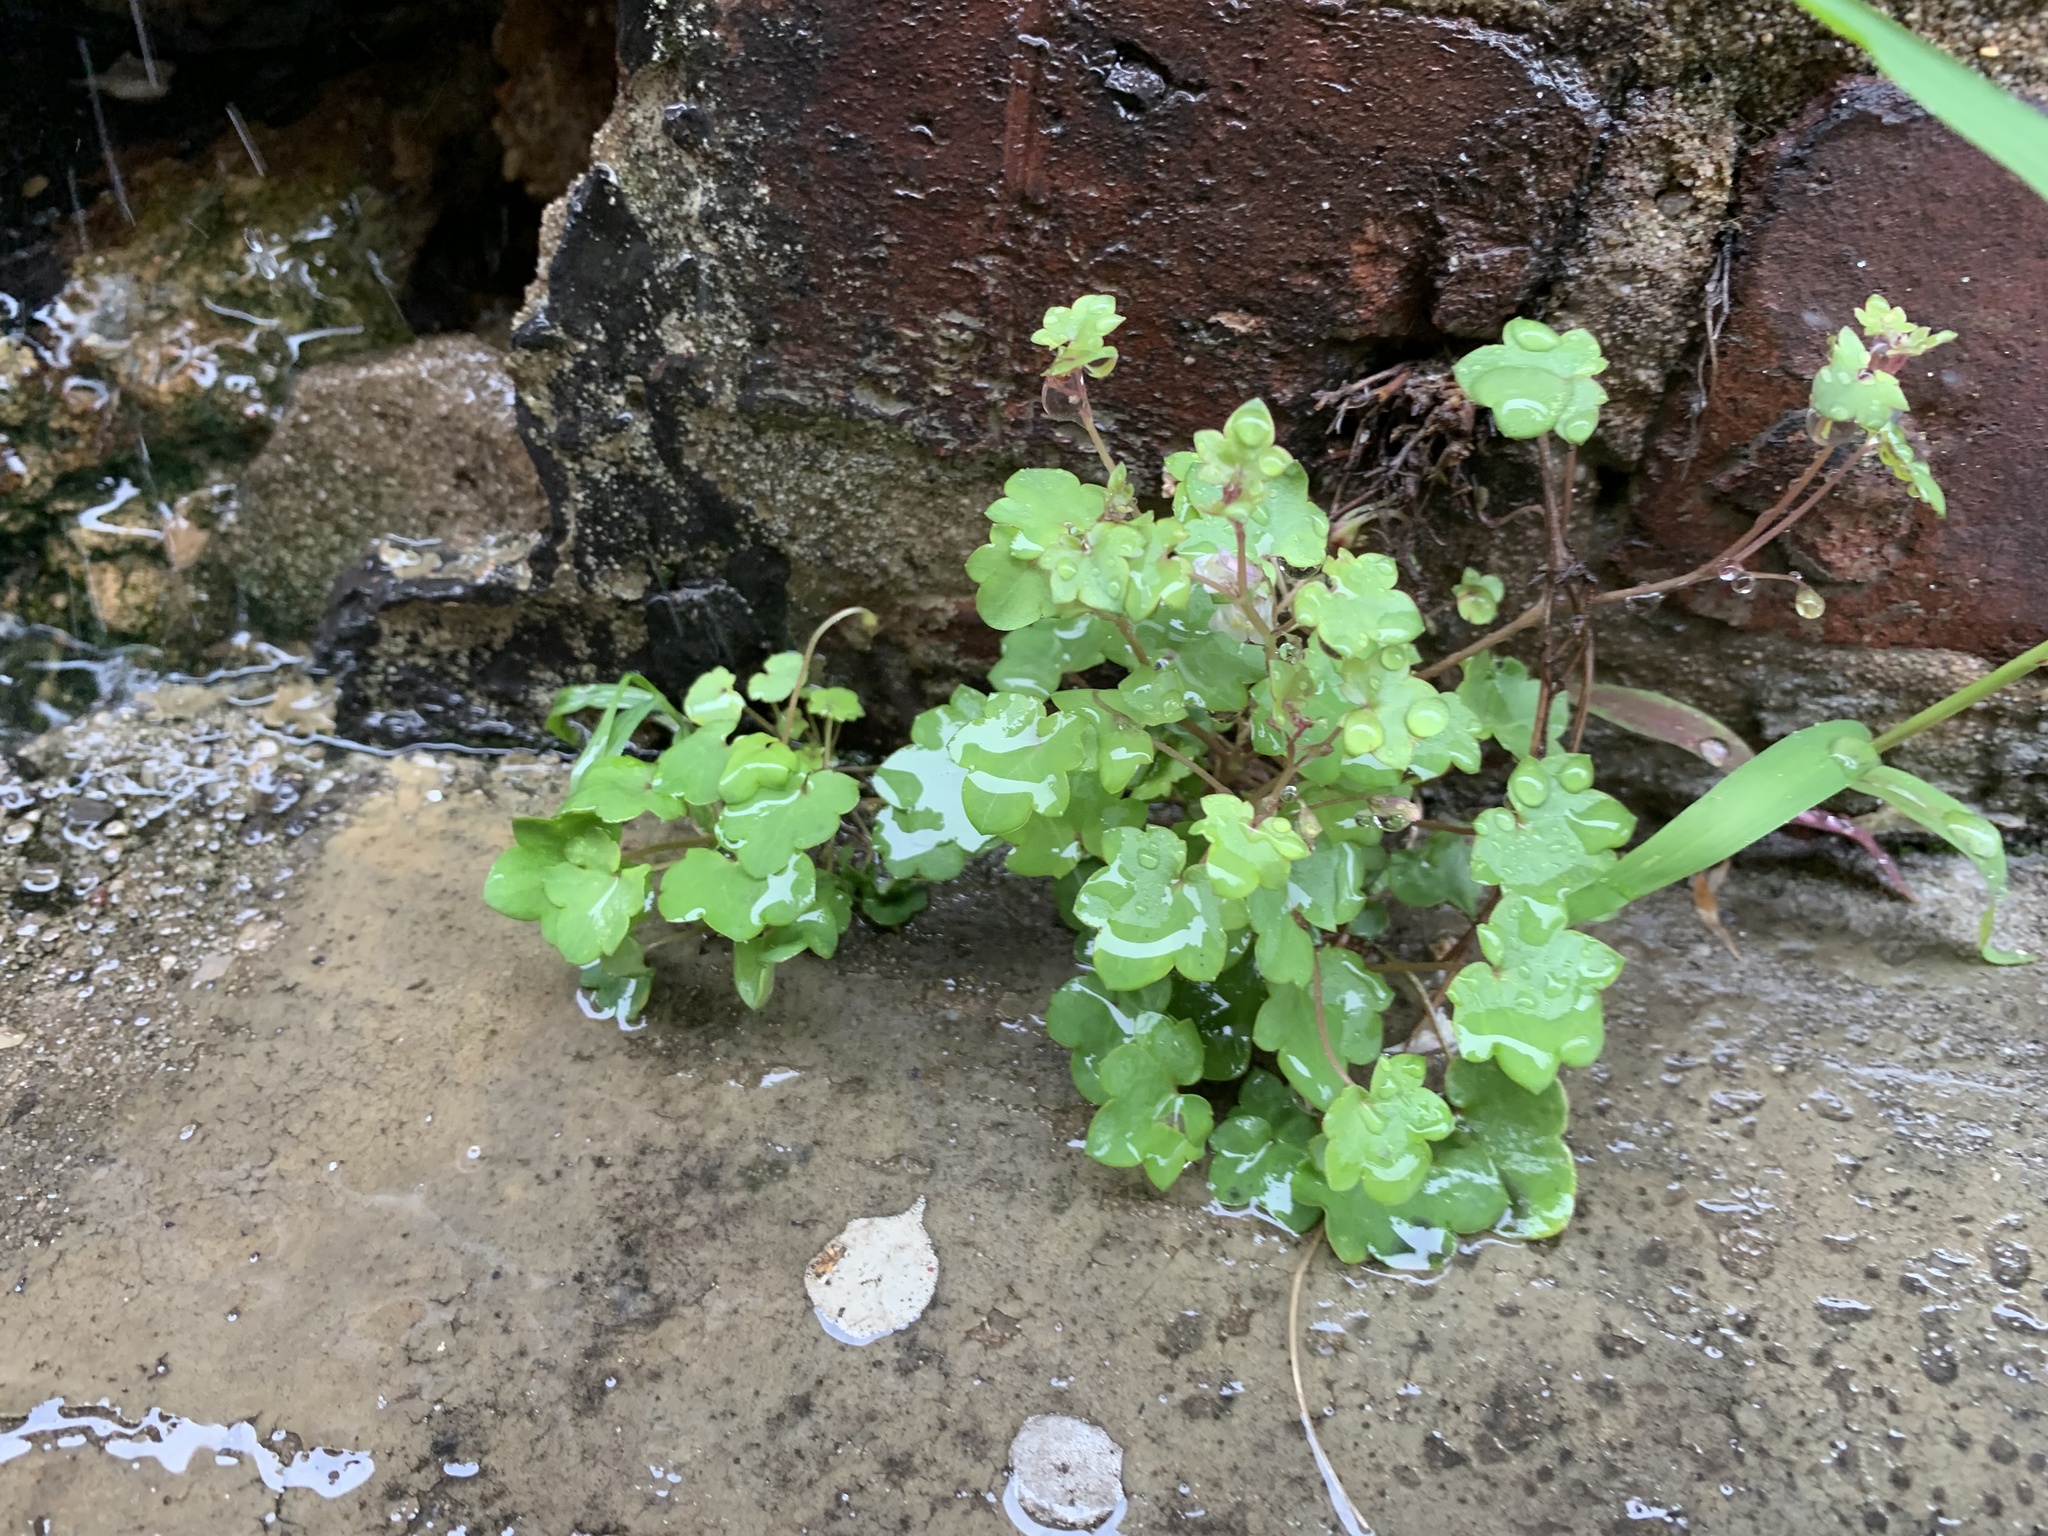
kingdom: Plantae
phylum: Tracheophyta
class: Magnoliopsida
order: Lamiales
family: Plantaginaceae
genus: Cymbalaria
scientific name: Cymbalaria muralis
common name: Ivy-leaved toadflax
